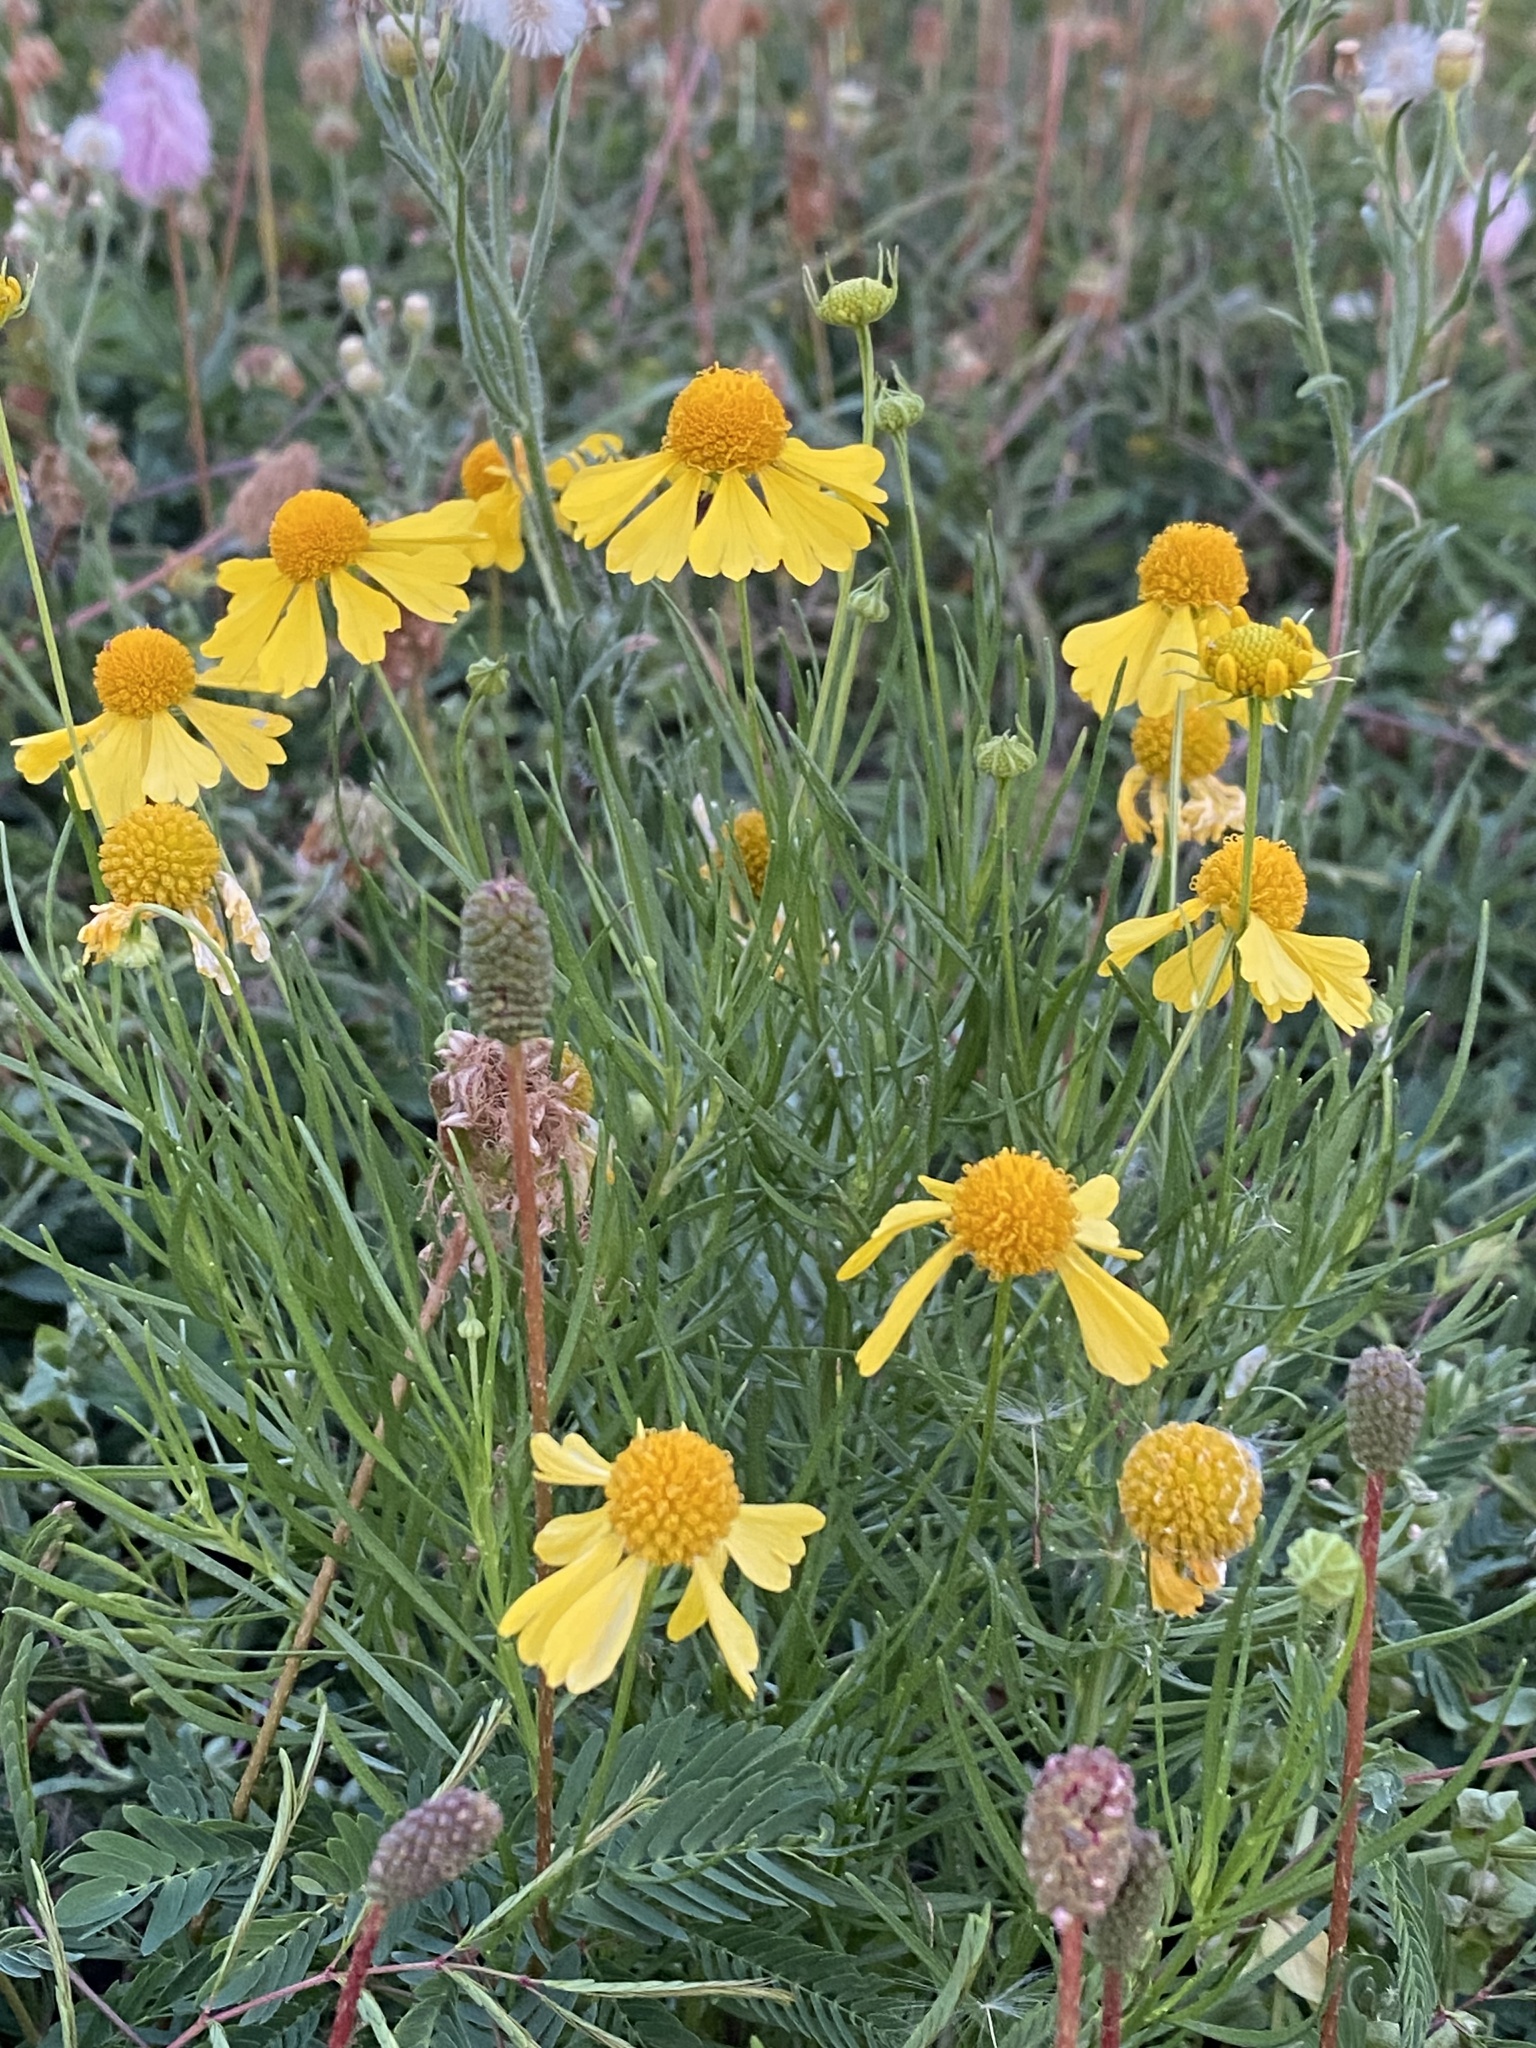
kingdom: Plantae
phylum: Tracheophyta
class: Magnoliopsida
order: Asterales
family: Asteraceae
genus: Helenium
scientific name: Helenium amarum
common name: Bitter sneezeweed
